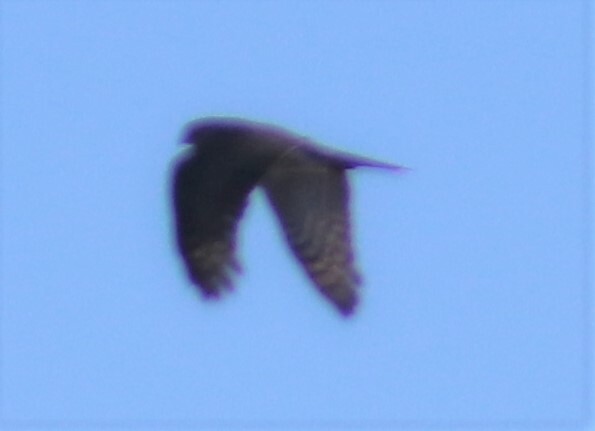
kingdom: Animalia
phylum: Chordata
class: Aves
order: Accipitriformes
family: Accipitridae
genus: Accipiter
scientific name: Accipiter striatus
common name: Sharp-shinned hawk
